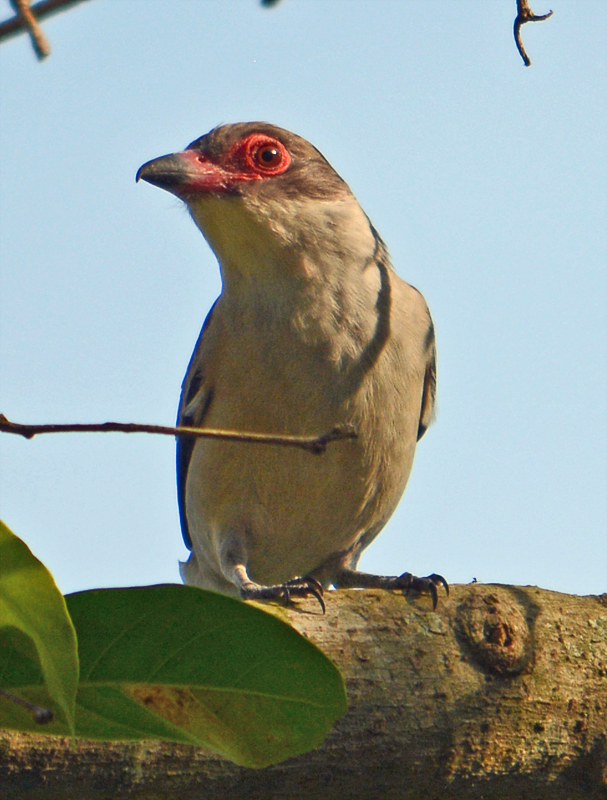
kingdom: Animalia
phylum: Chordata
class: Aves
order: Passeriformes
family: Cotingidae
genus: Tityra
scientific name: Tityra semifasciata
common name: Masked tityra
